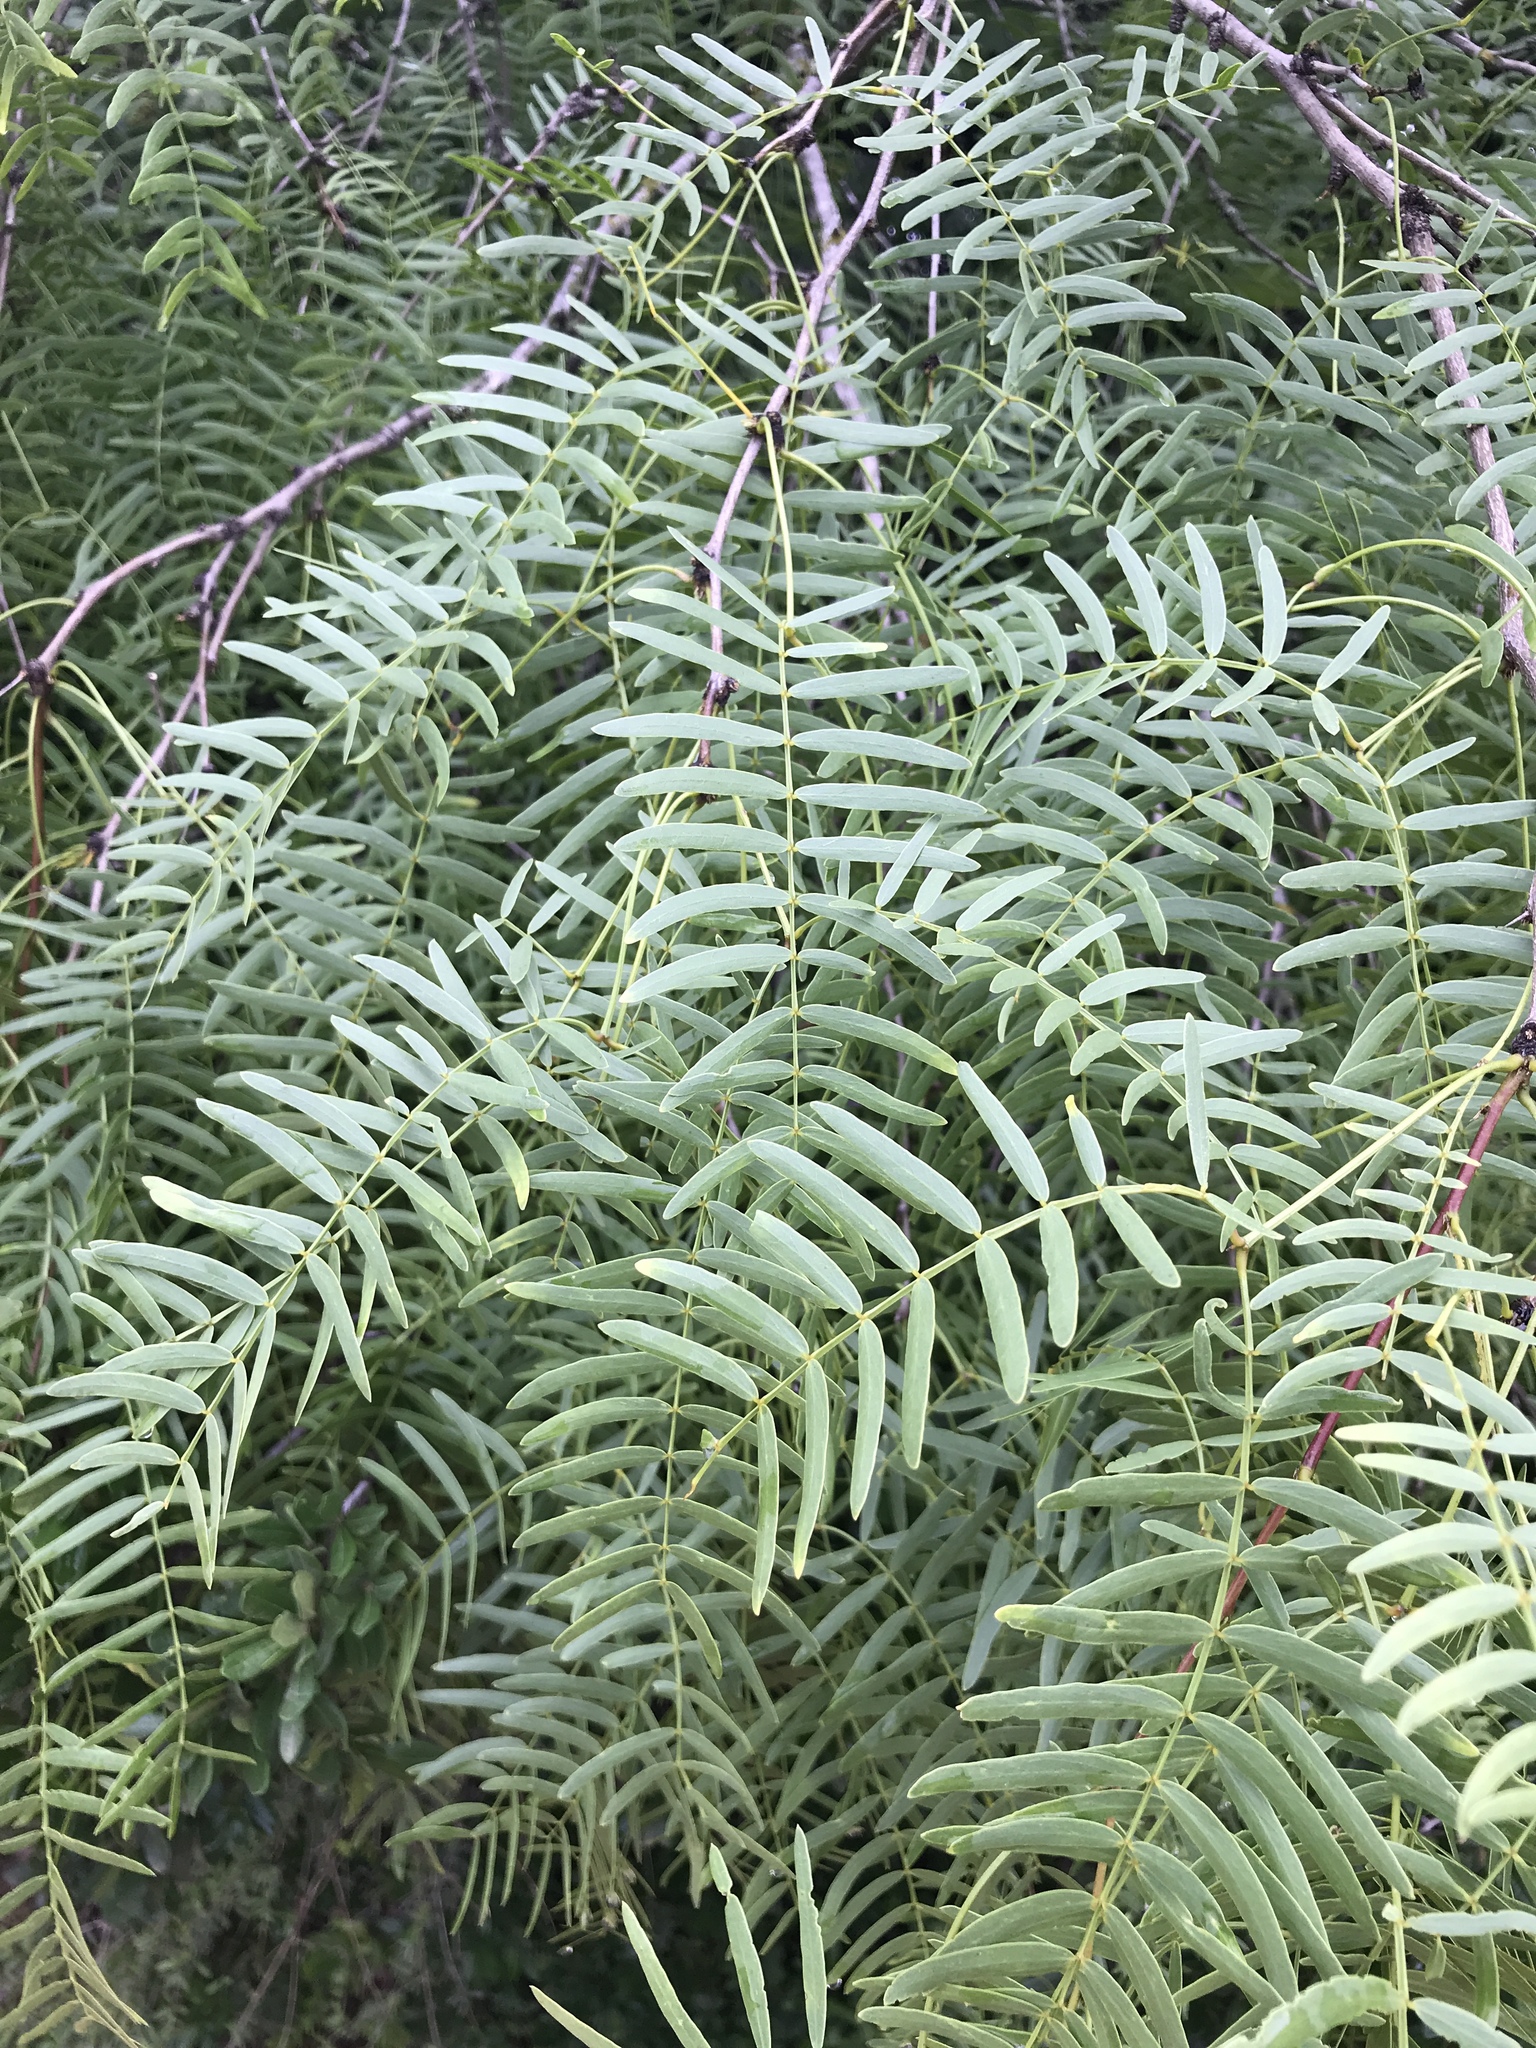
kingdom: Plantae
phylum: Tracheophyta
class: Magnoliopsida
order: Fabales
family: Fabaceae
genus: Prosopis
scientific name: Prosopis glandulosa
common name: Honey mesquite
